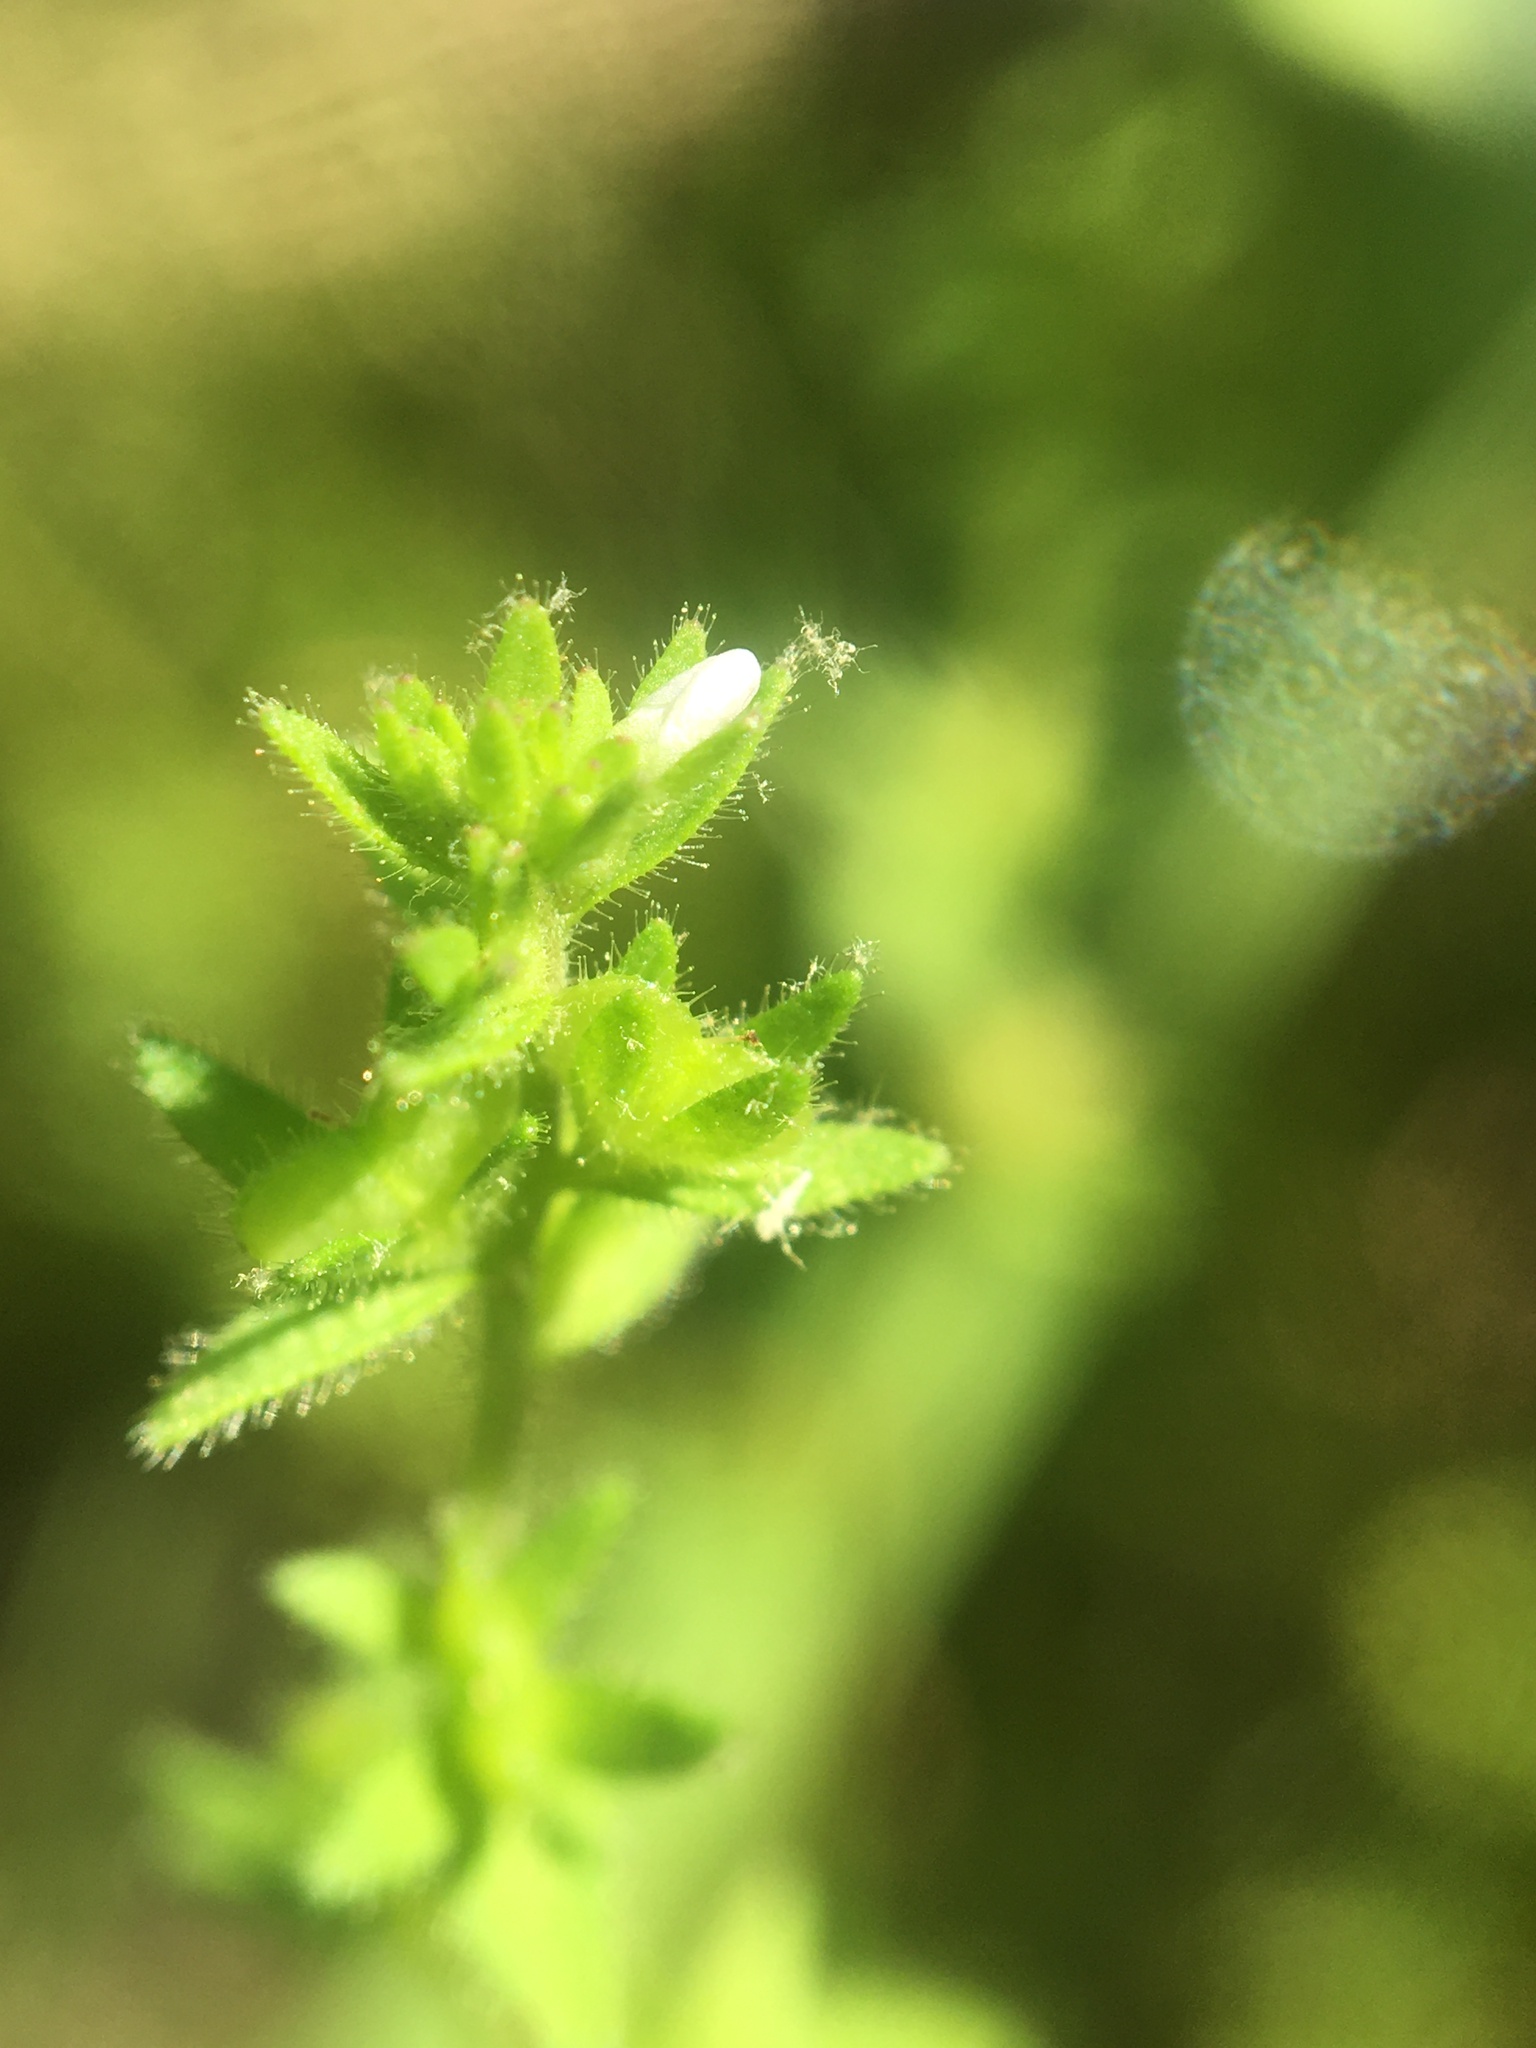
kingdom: Plantae
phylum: Tracheophyta
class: Magnoliopsida
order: Lamiales
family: Plantaginaceae
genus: Veronica
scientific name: Veronica arvensis
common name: Corn speedwell
